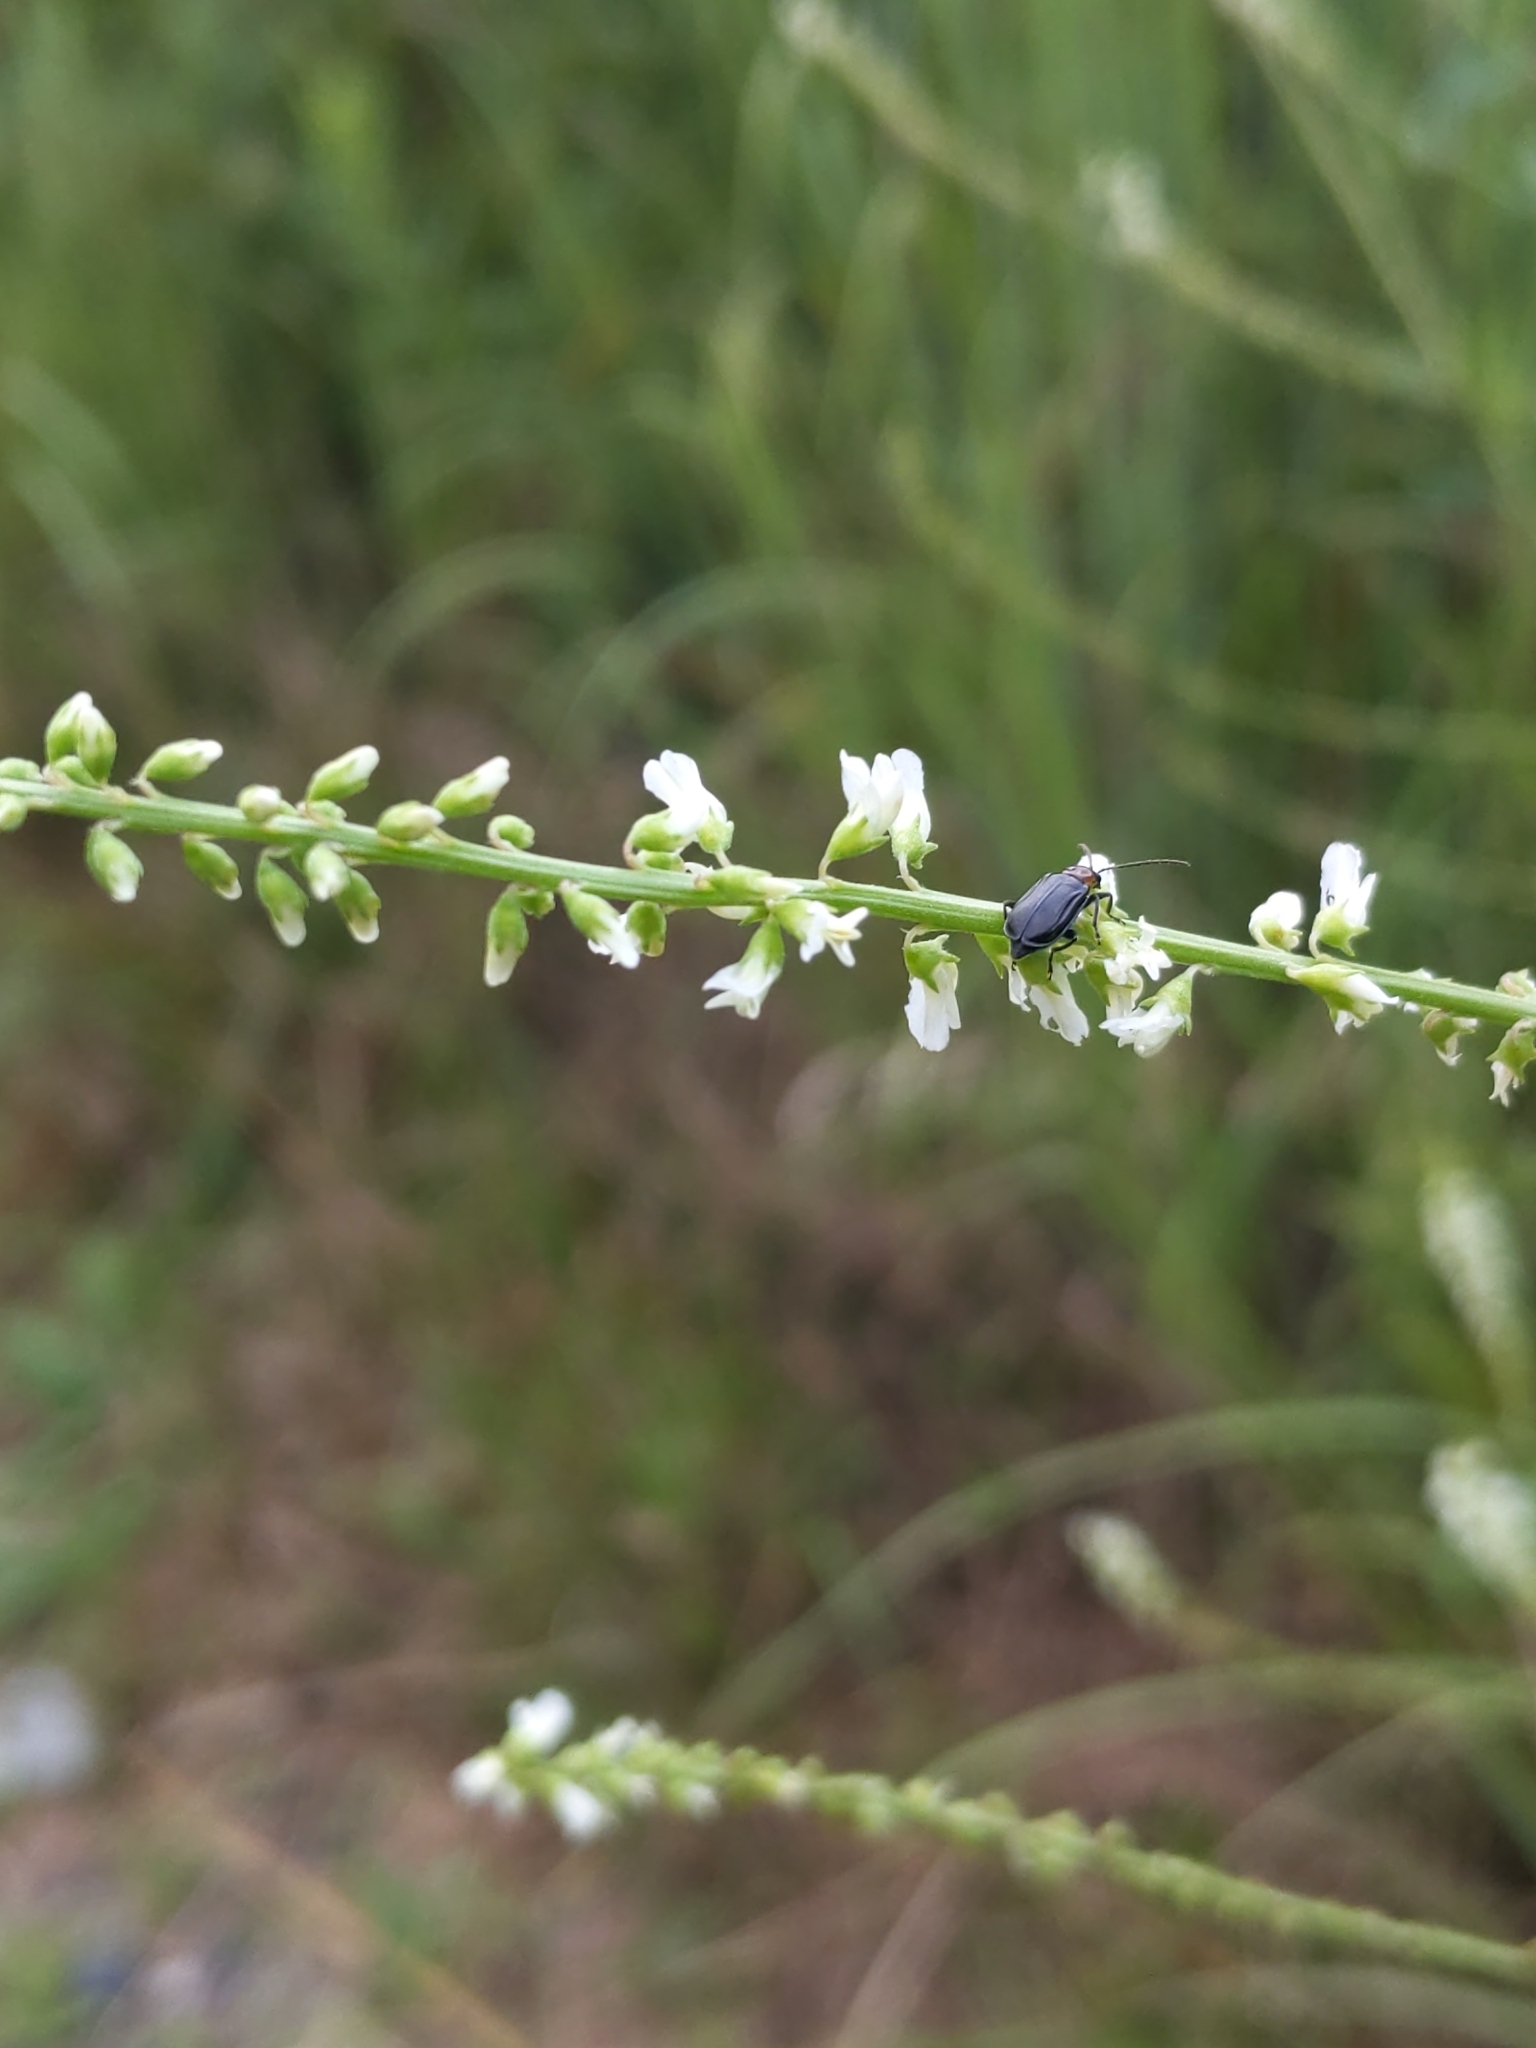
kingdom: Plantae
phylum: Tracheophyta
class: Magnoliopsida
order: Fabales
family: Fabaceae
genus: Melilotus
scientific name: Melilotus albus
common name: White melilot
